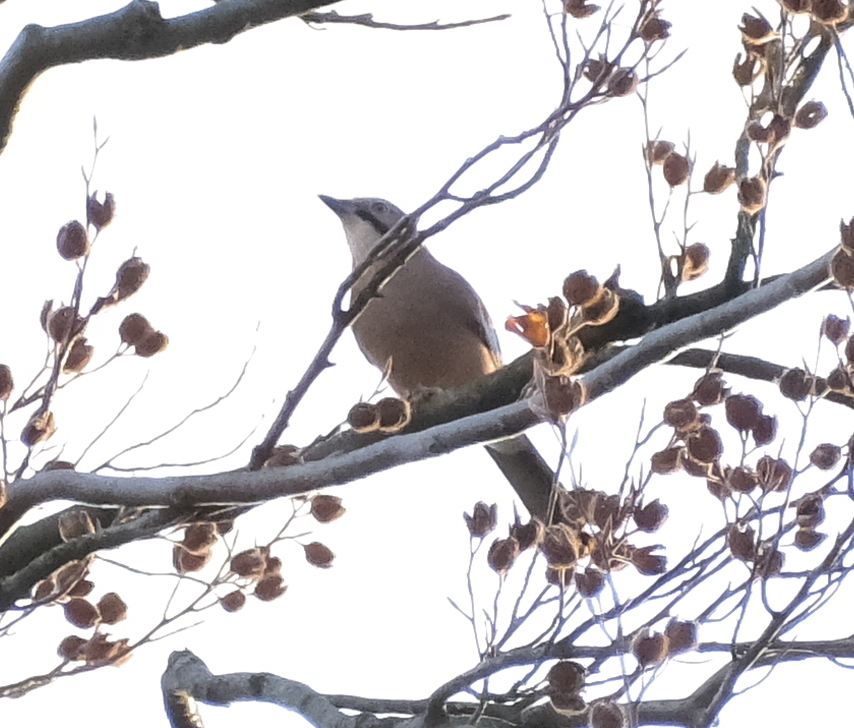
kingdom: Animalia
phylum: Chordata
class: Aves
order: Passeriformes
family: Corvidae
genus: Garrulus
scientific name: Garrulus glandarius
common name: Eurasian jay
